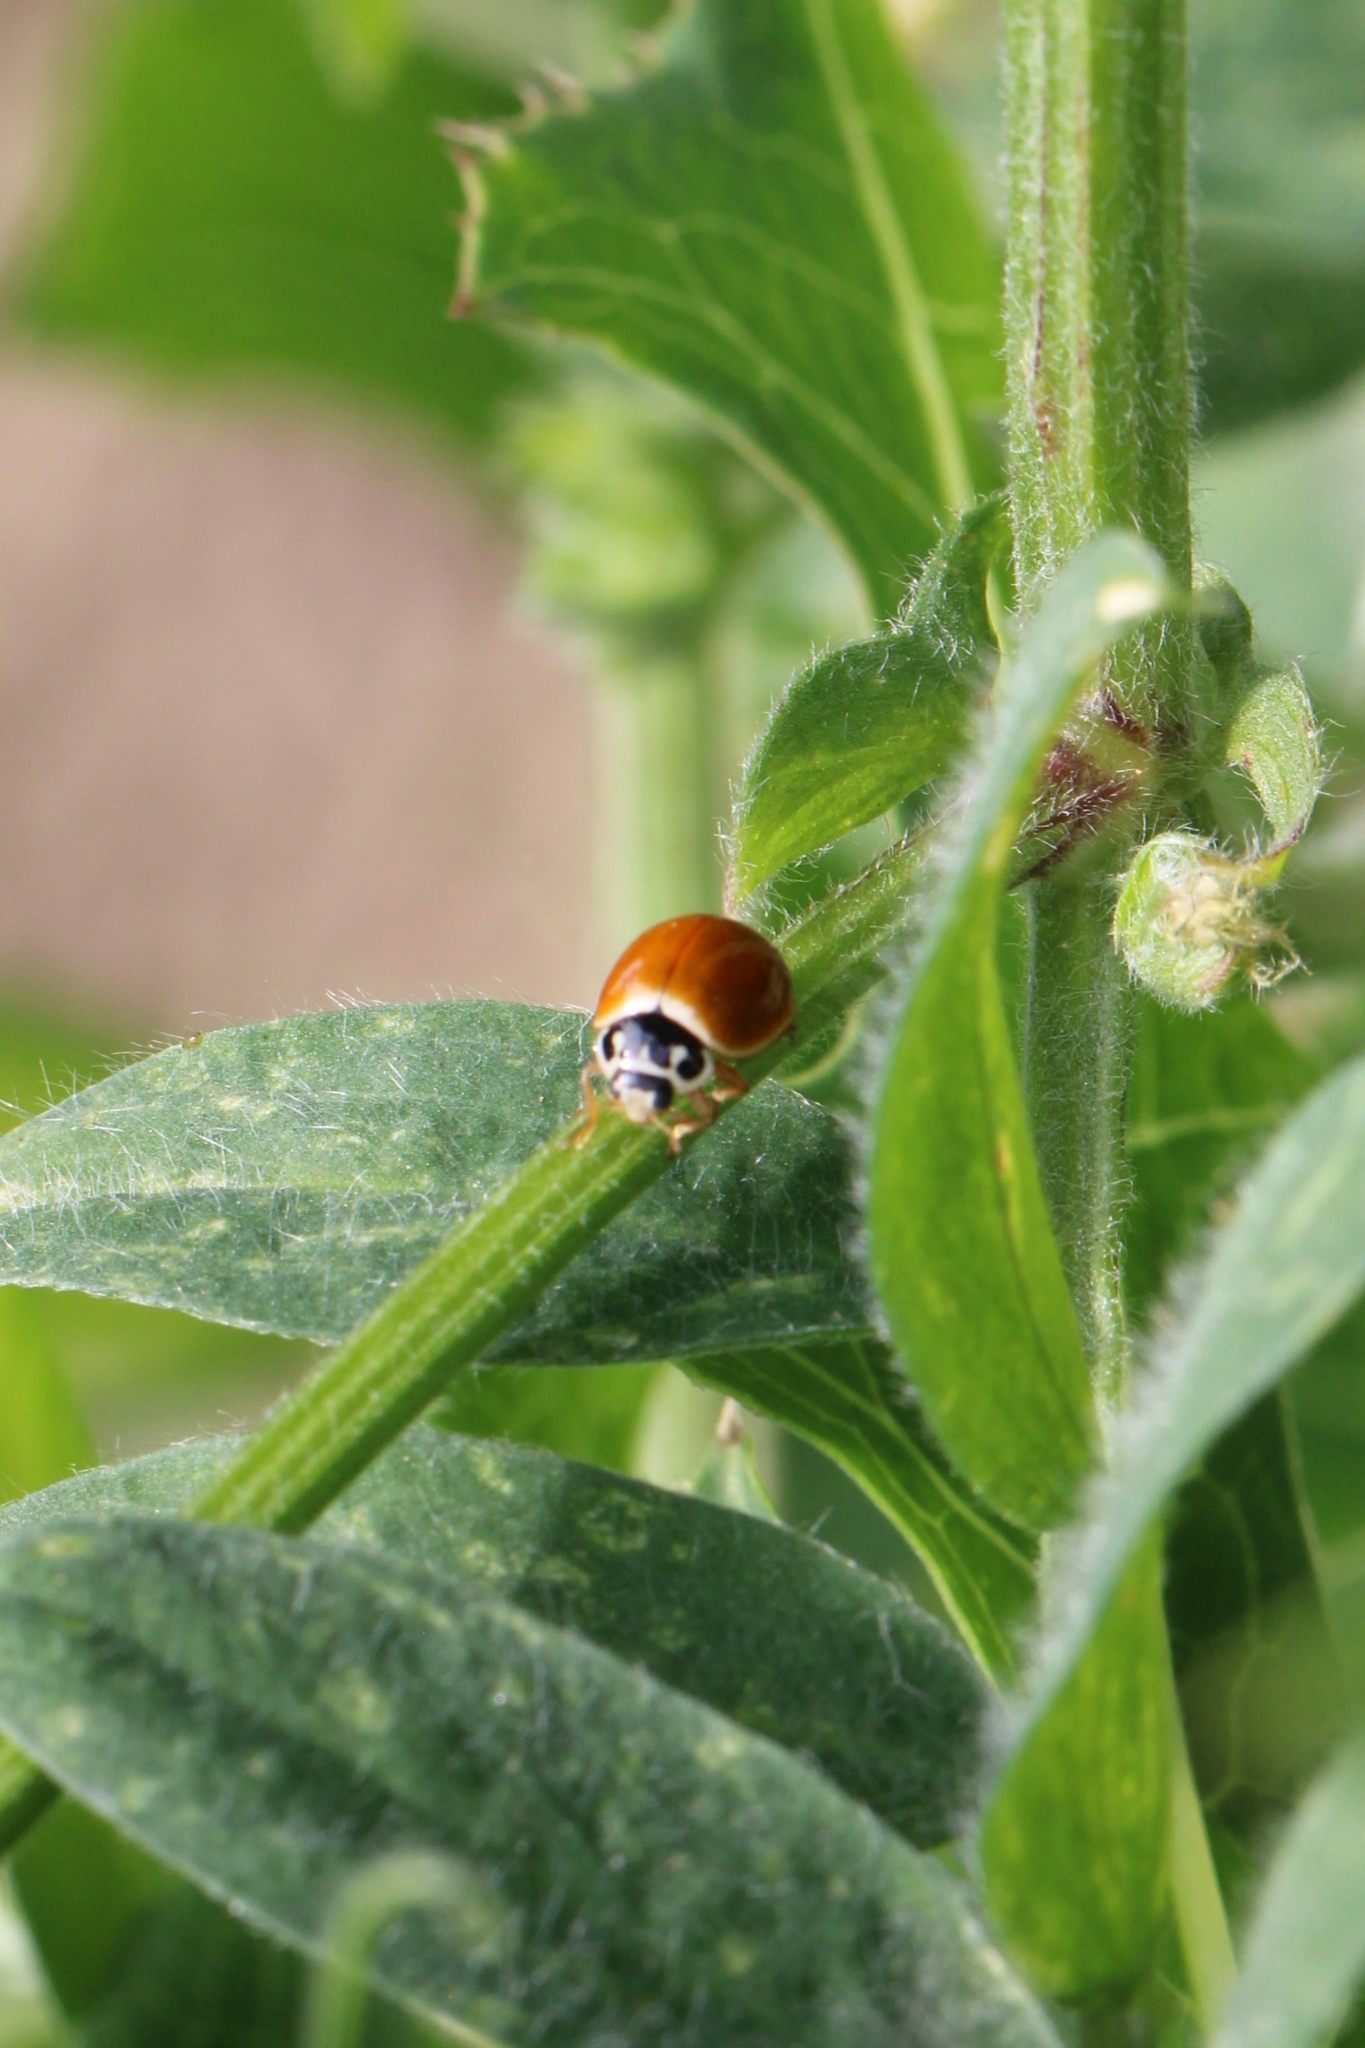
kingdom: Animalia
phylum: Arthropoda
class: Insecta
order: Coleoptera
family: Coccinellidae
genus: Cycloneda
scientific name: Cycloneda munda
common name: Polished lady beetle
